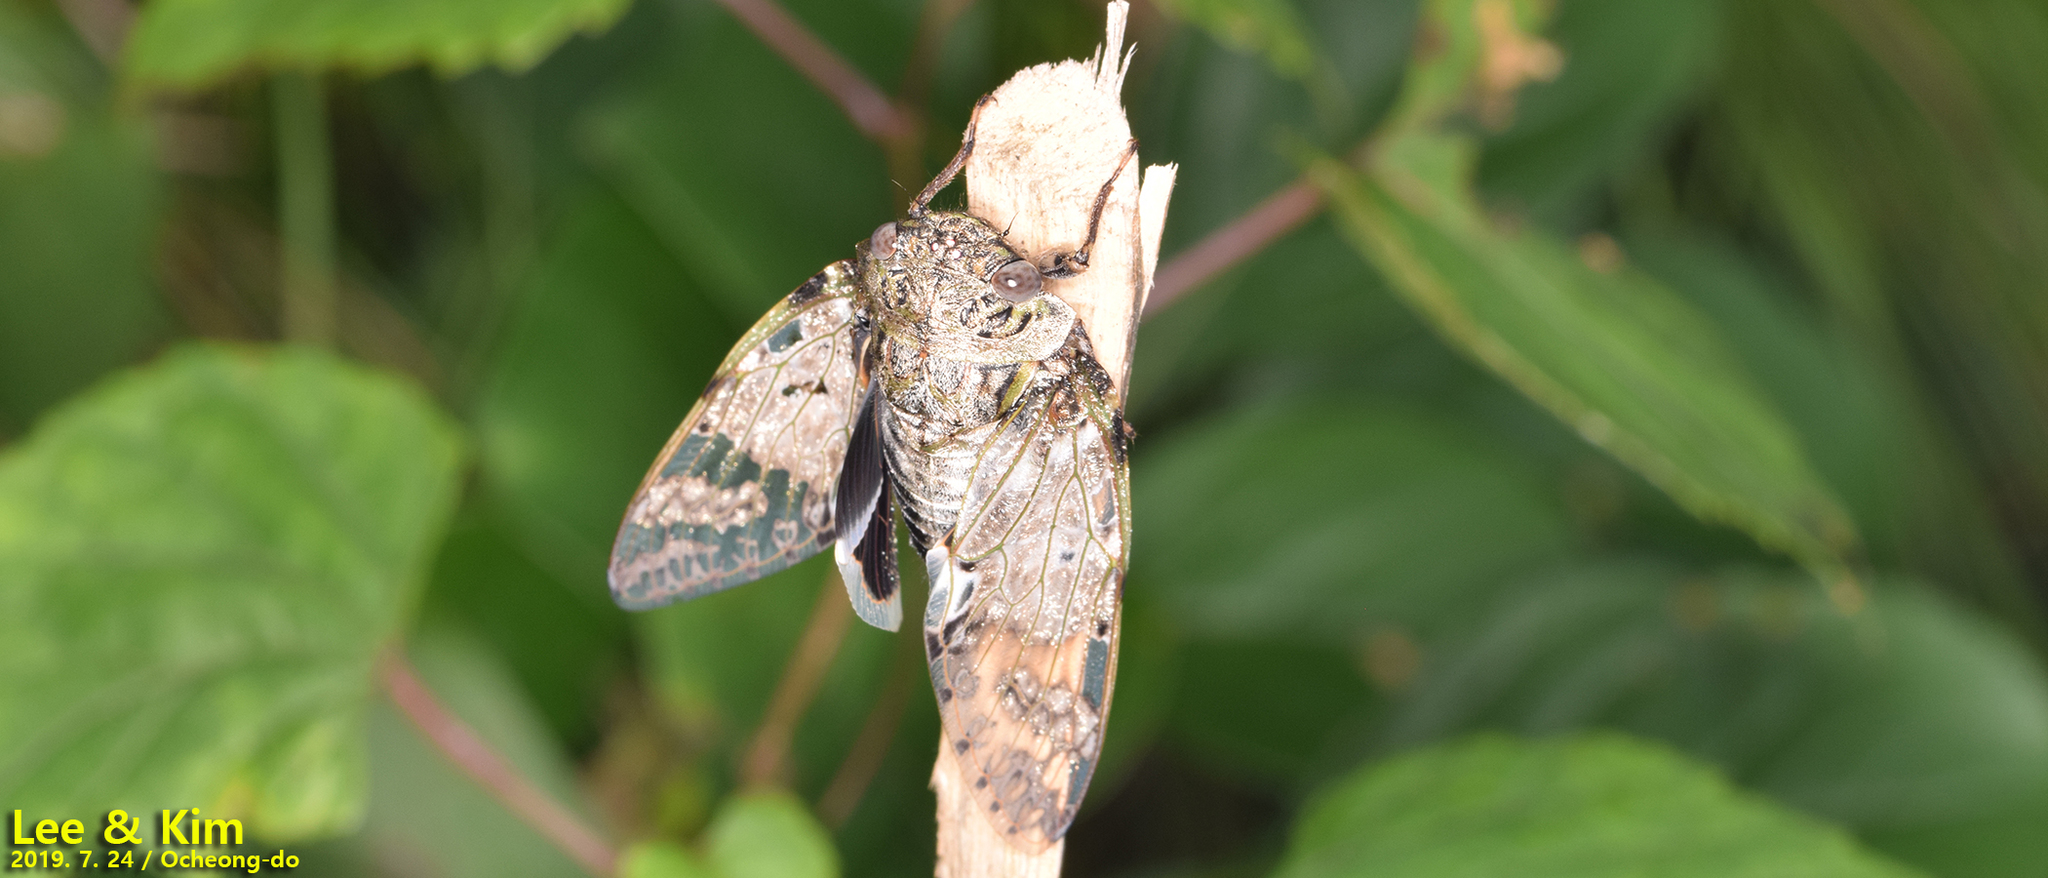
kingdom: Animalia
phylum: Arthropoda
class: Insecta
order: Hemiptera
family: Cicadidae
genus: Platypleura
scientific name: Platypleura kaempferi
